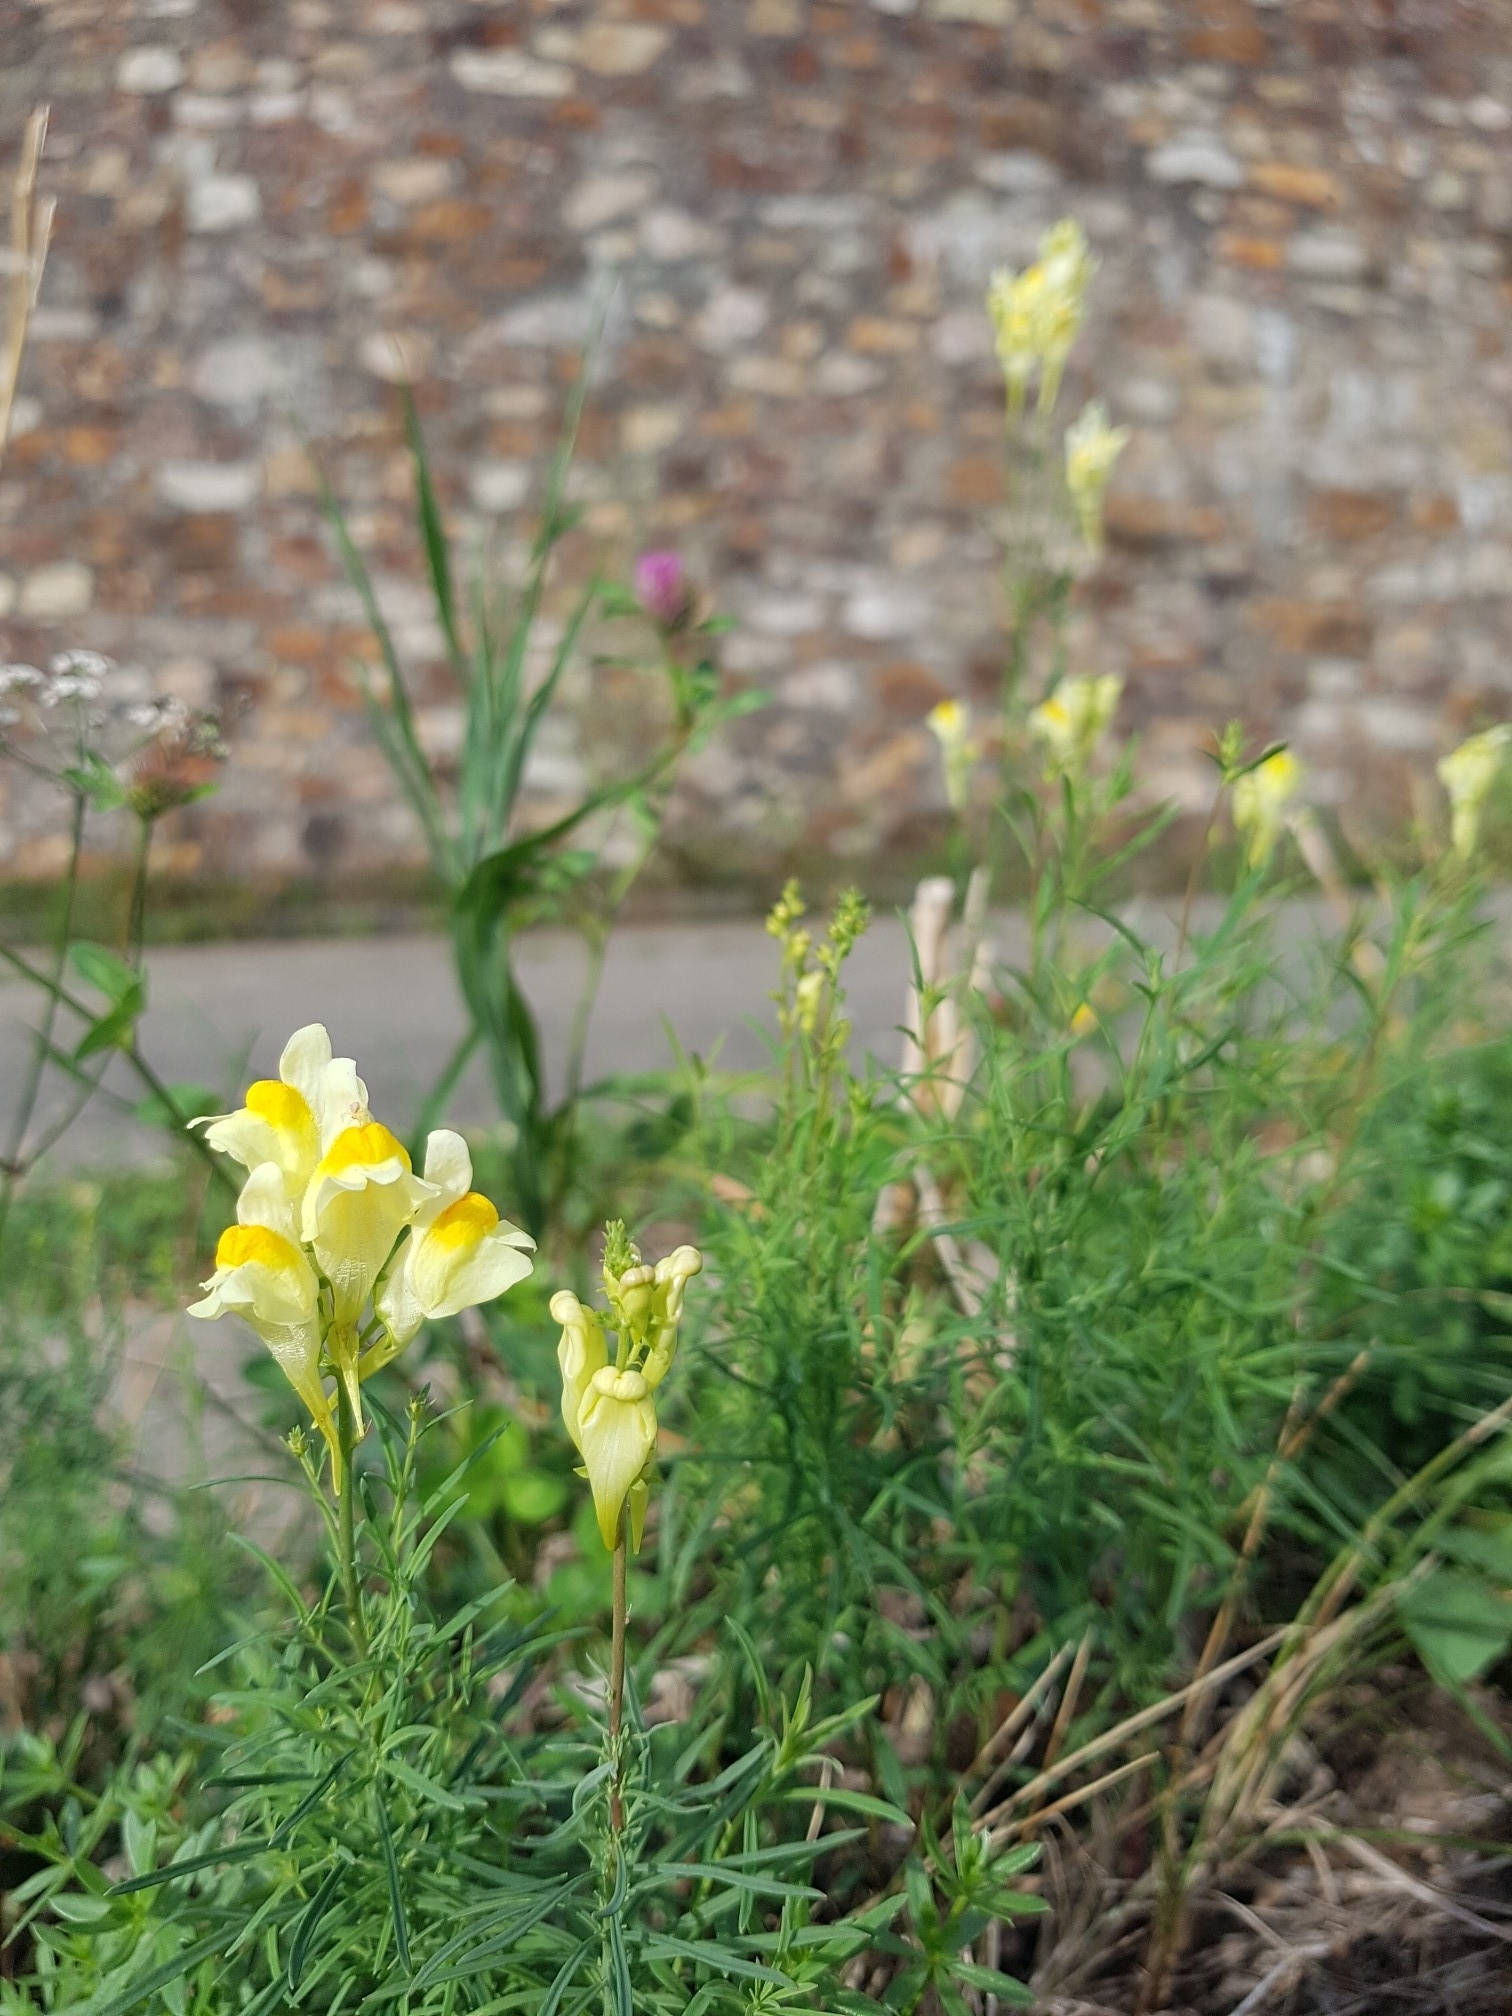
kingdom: Plantae
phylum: Tracheophyta
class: Magnoliopsida
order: Lamiales
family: Plantaginaceae
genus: Linaria
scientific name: Linaria vulgaris
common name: Butter and eggs
